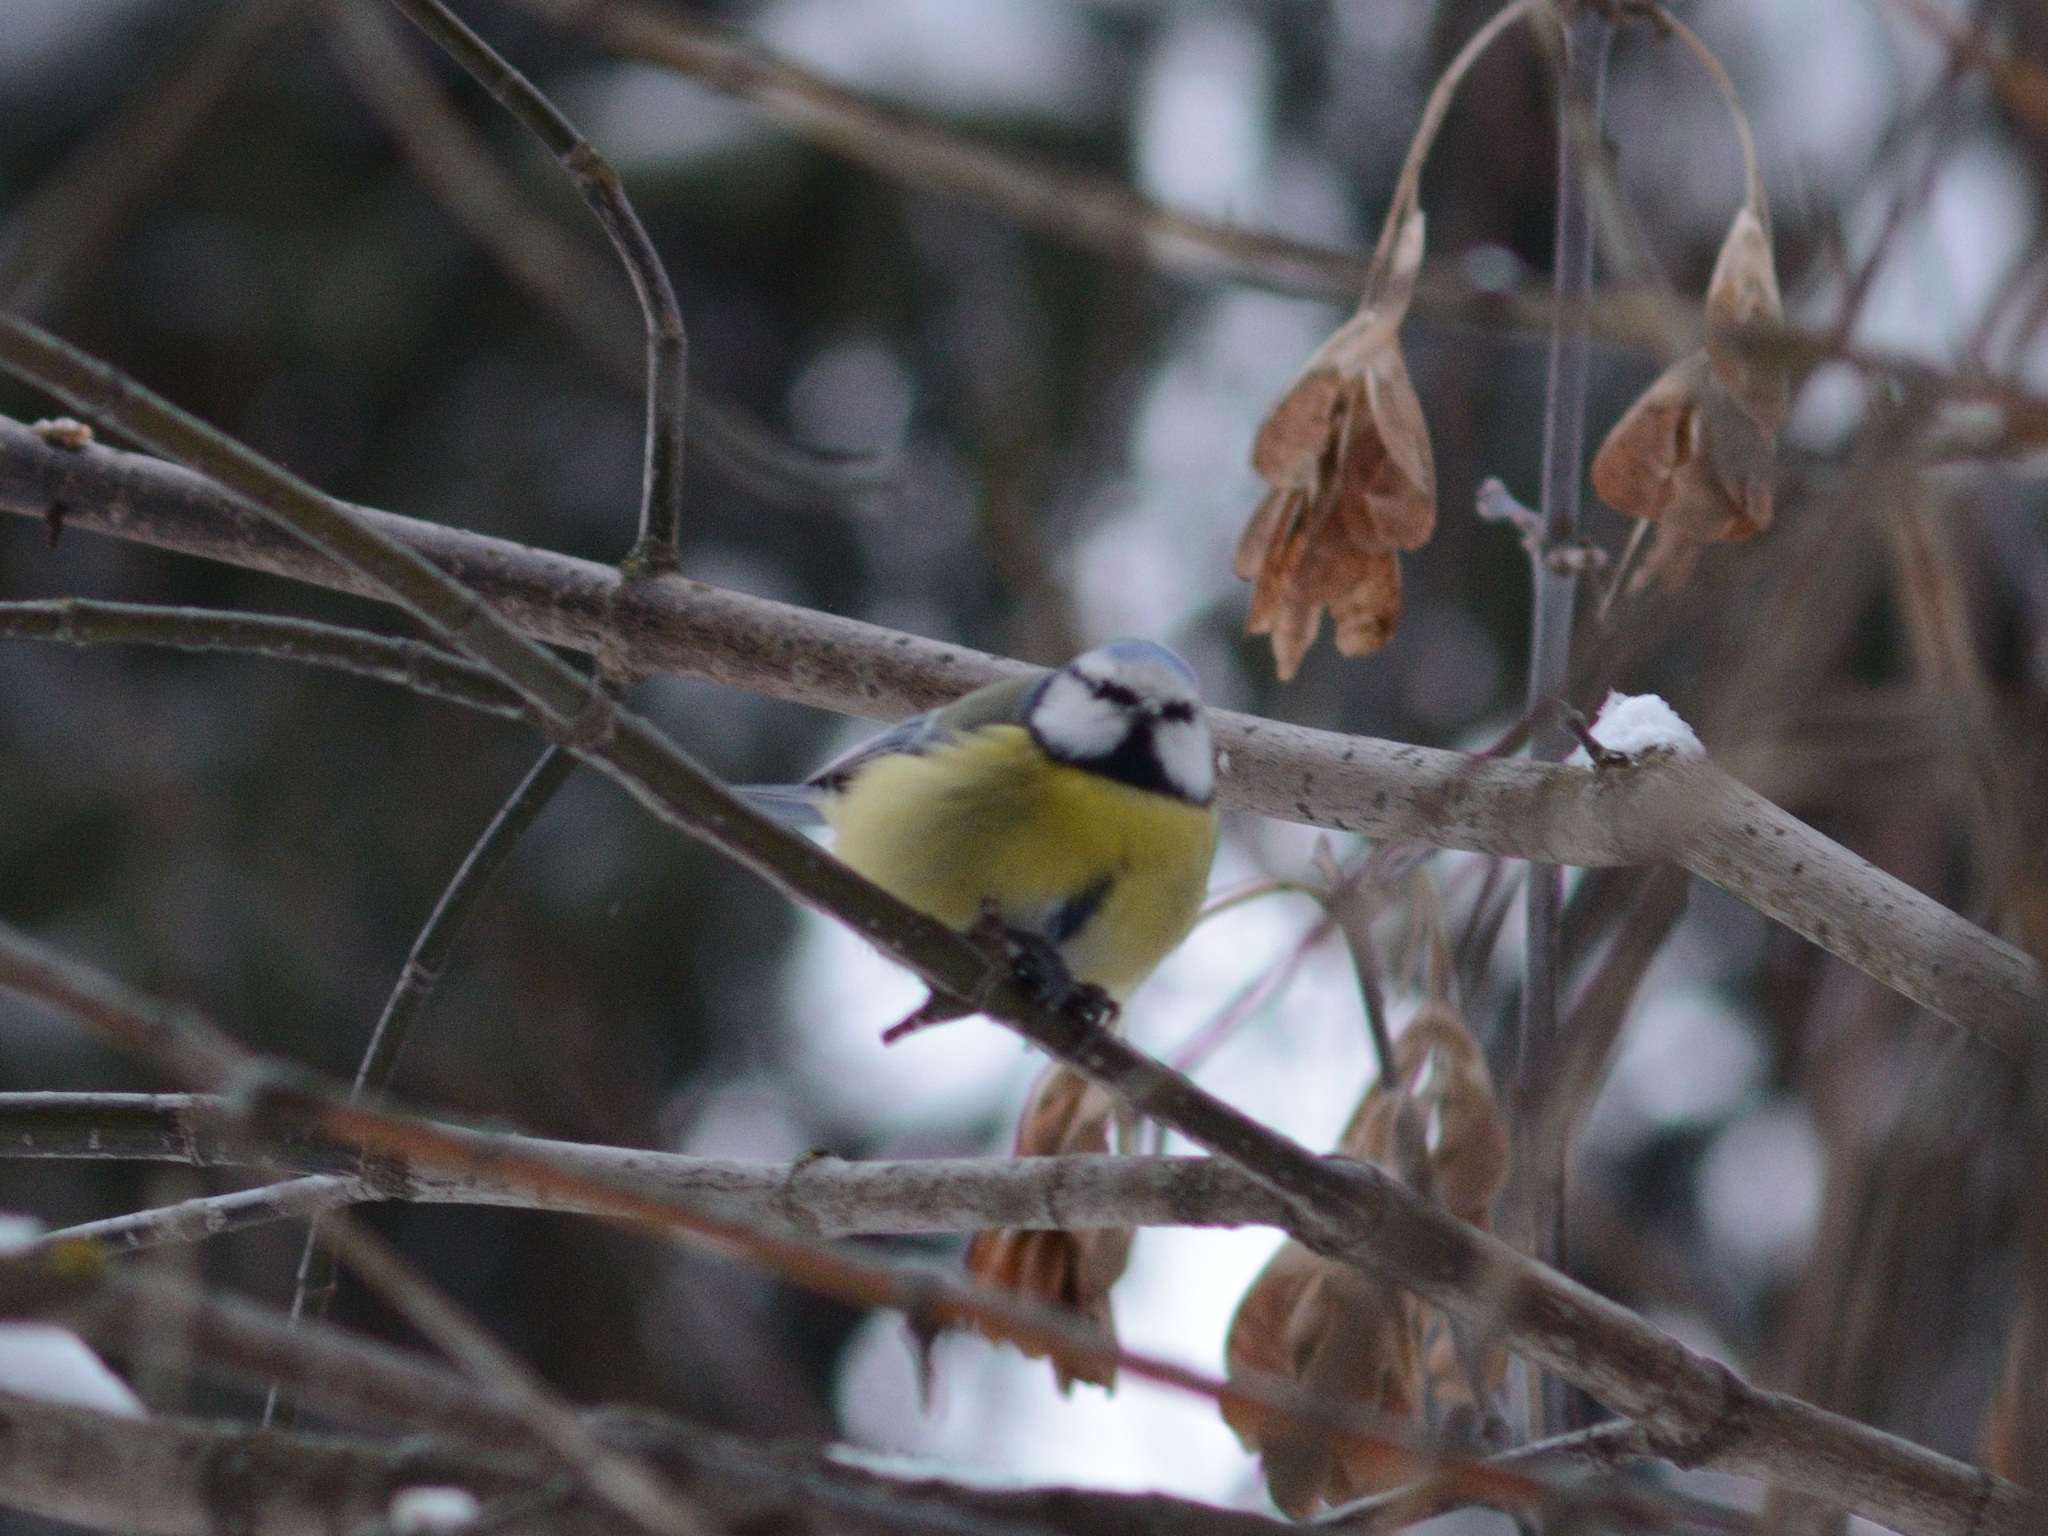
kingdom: Animalia
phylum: Chordata
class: Aves
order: Passeriformes
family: Paridae
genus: Cyanistes
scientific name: Cyanistes caeruleus
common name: Eurasian blue tit
